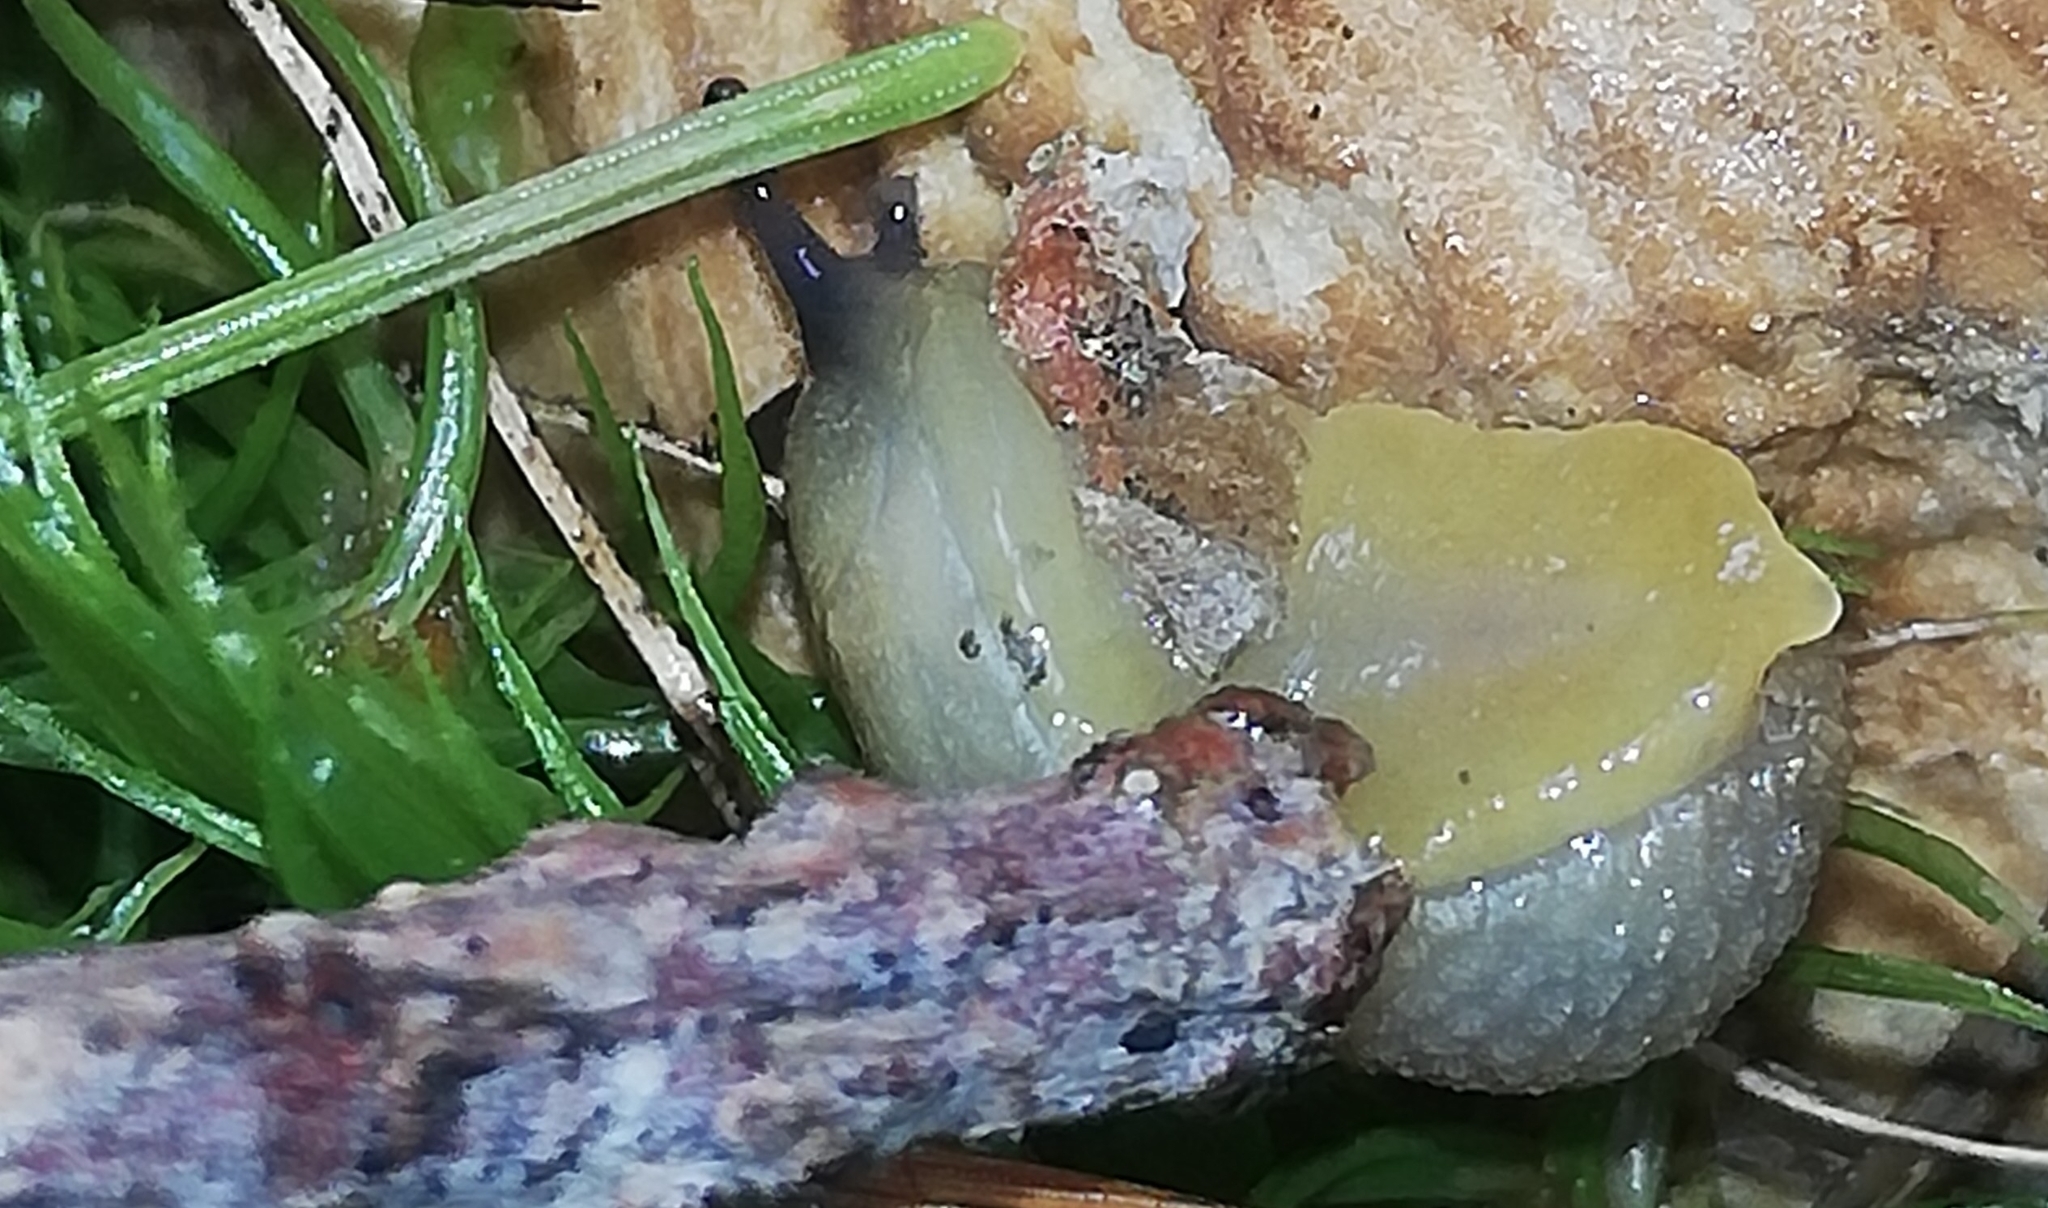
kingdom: Animalia
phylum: Mollusca
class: Gastropoda
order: Stylommatophora
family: Arionidae
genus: Arion
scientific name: Arion intermedius
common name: Hedgehog slug
